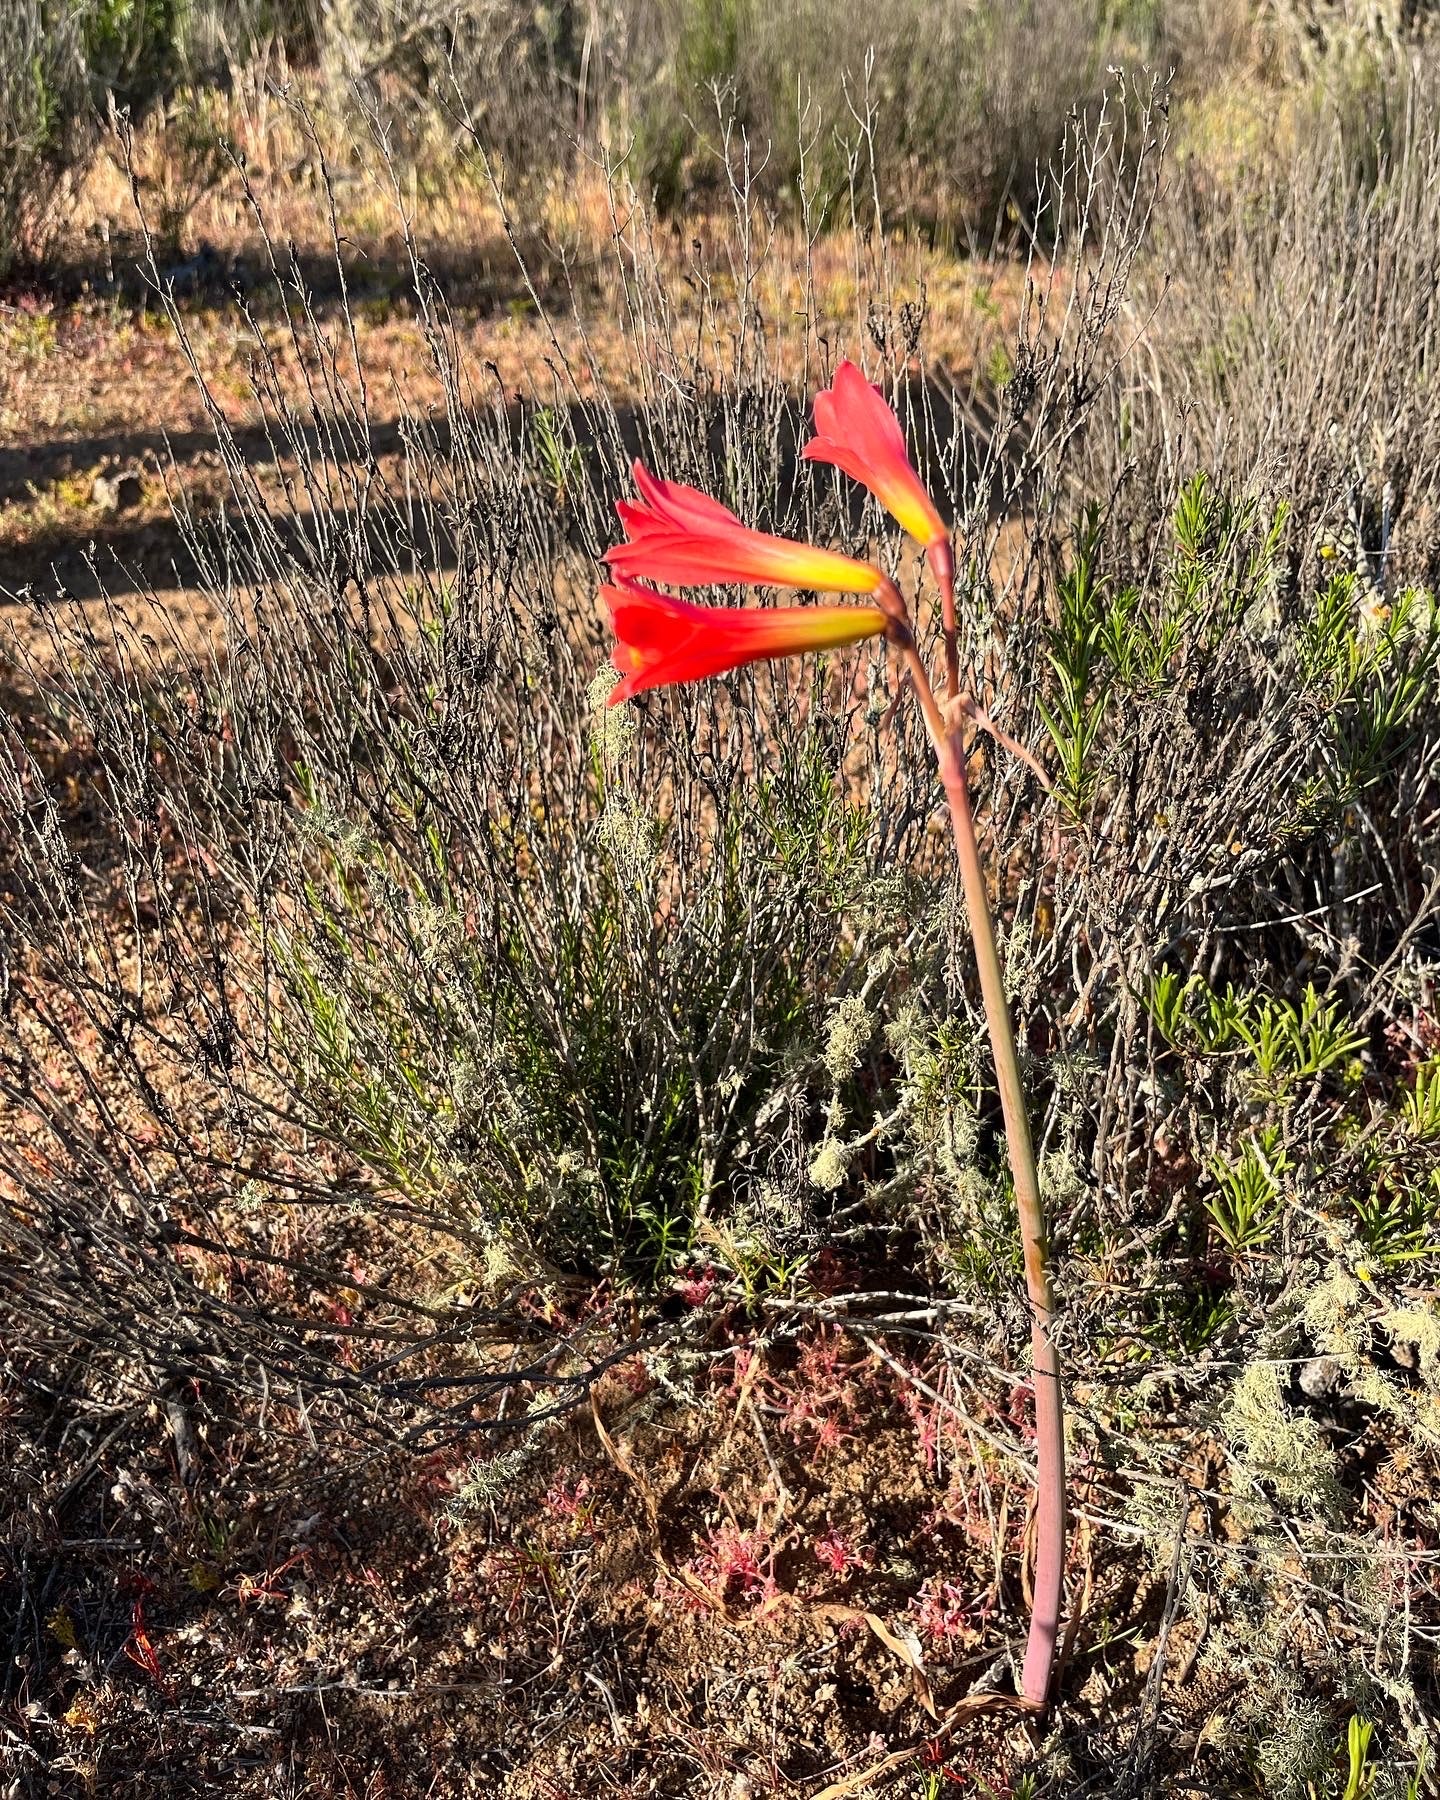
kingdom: Plantae
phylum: Tracheophyta
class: Liliopsida
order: Asparagales
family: Amaryllidaceae
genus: Zephyranthes
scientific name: Zephyranthes phycelloides
